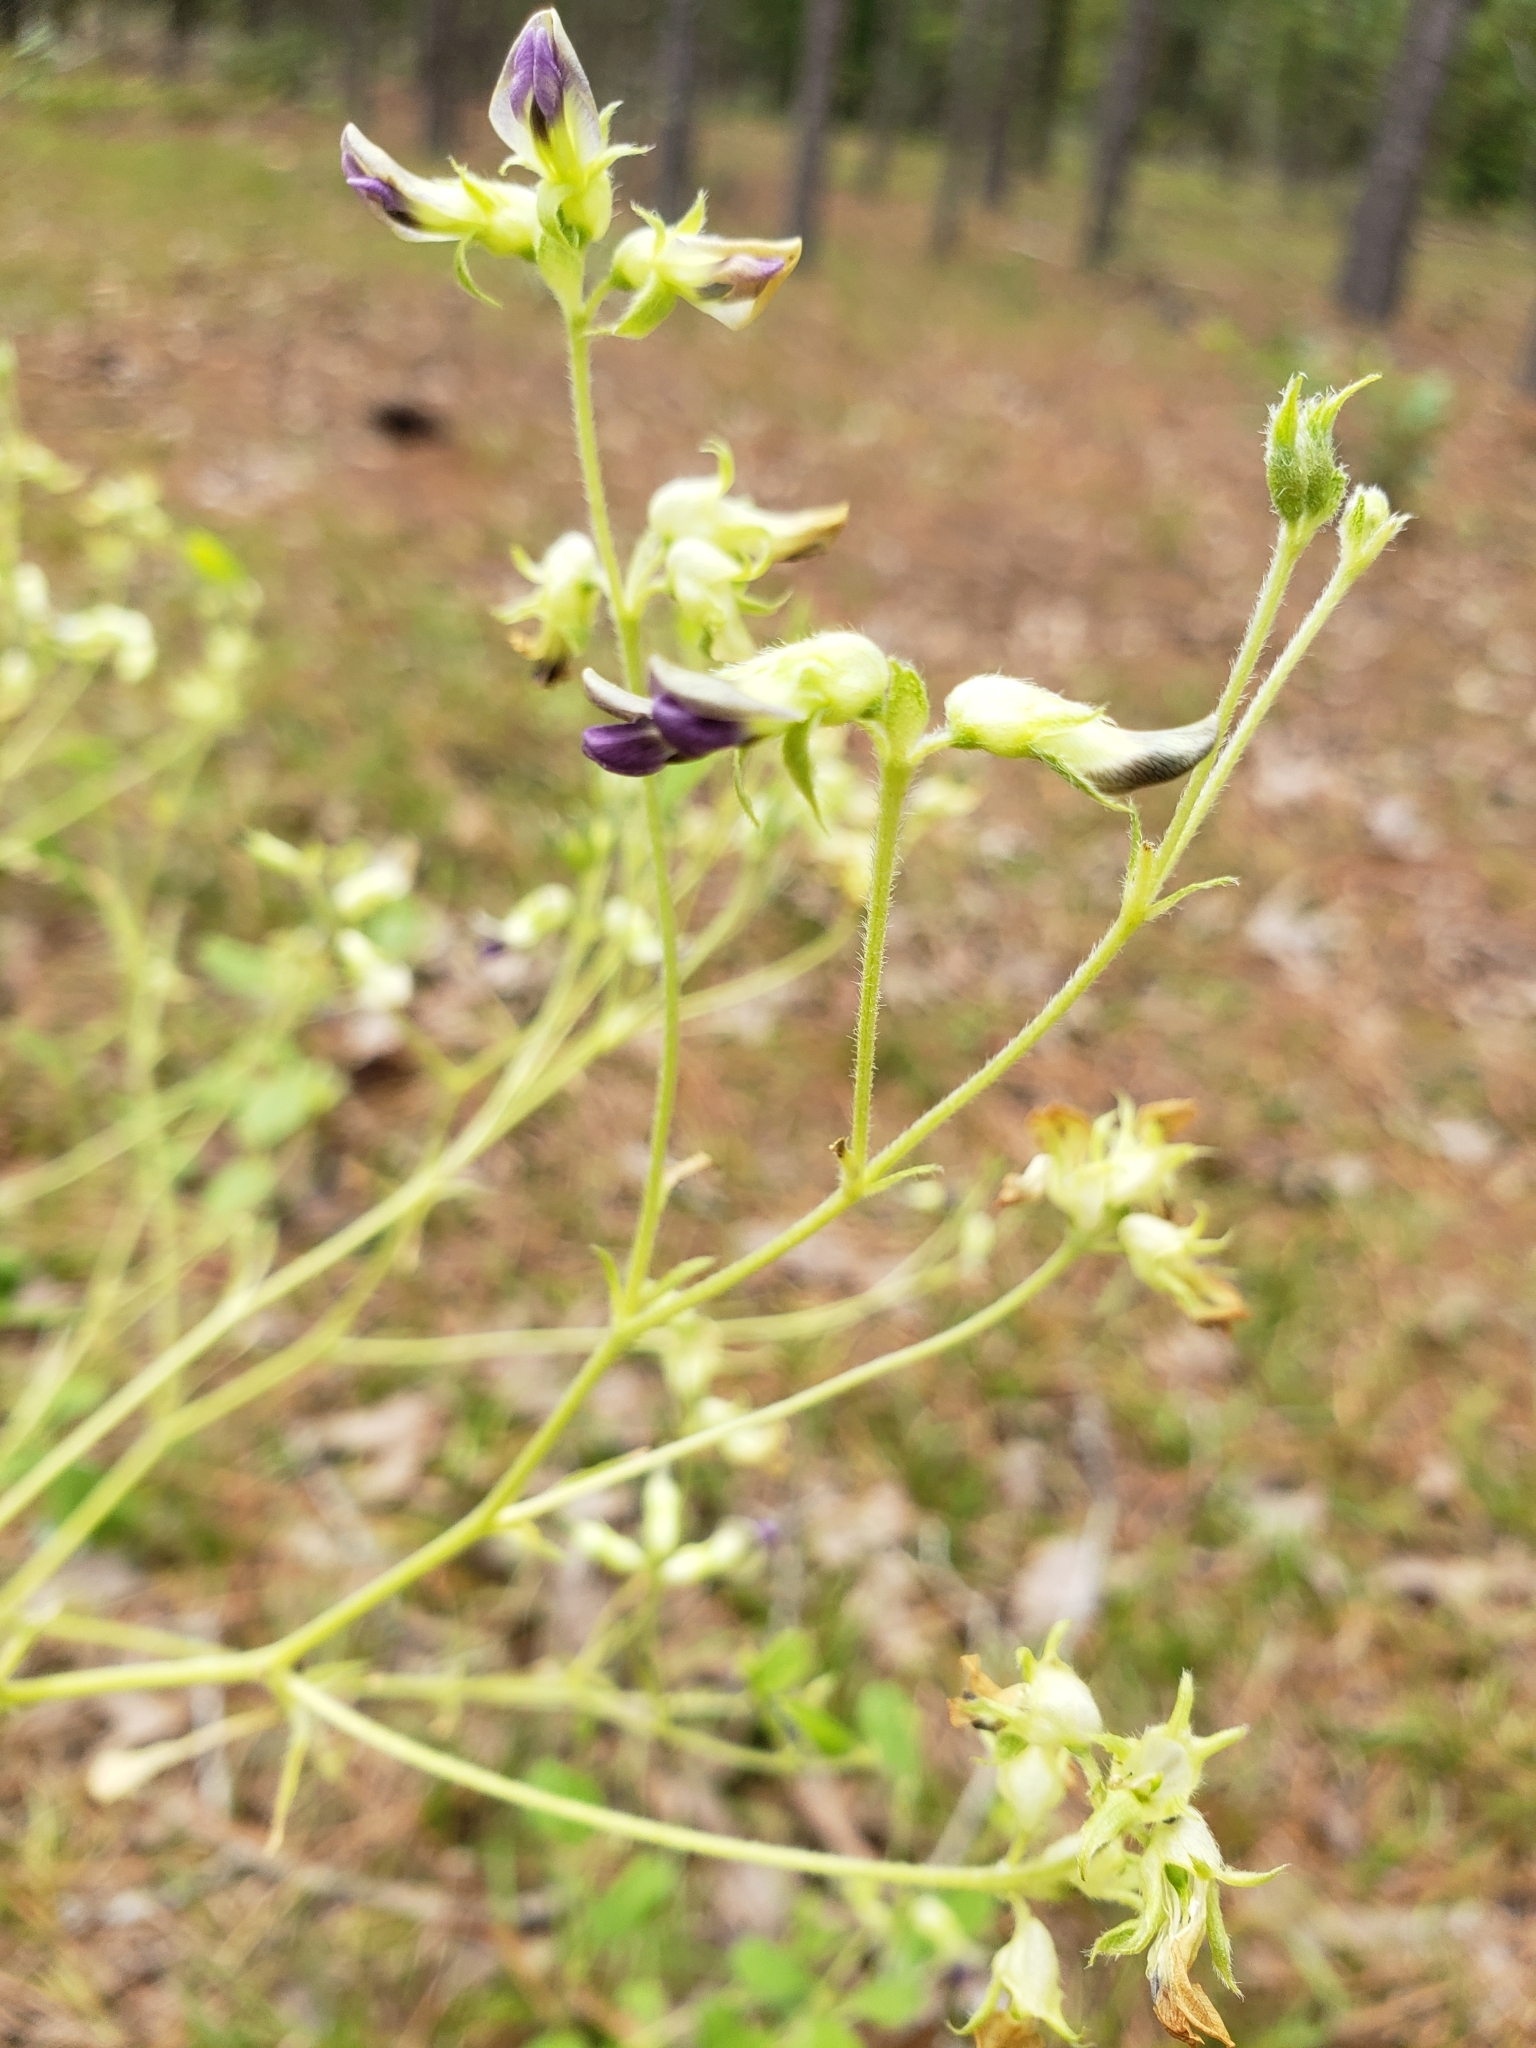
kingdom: Plantae
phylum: Tracheophyta
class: Magnoliopsida
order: Fabales
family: Fabaceae
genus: Pediomelum
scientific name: Pediomelum canescens
